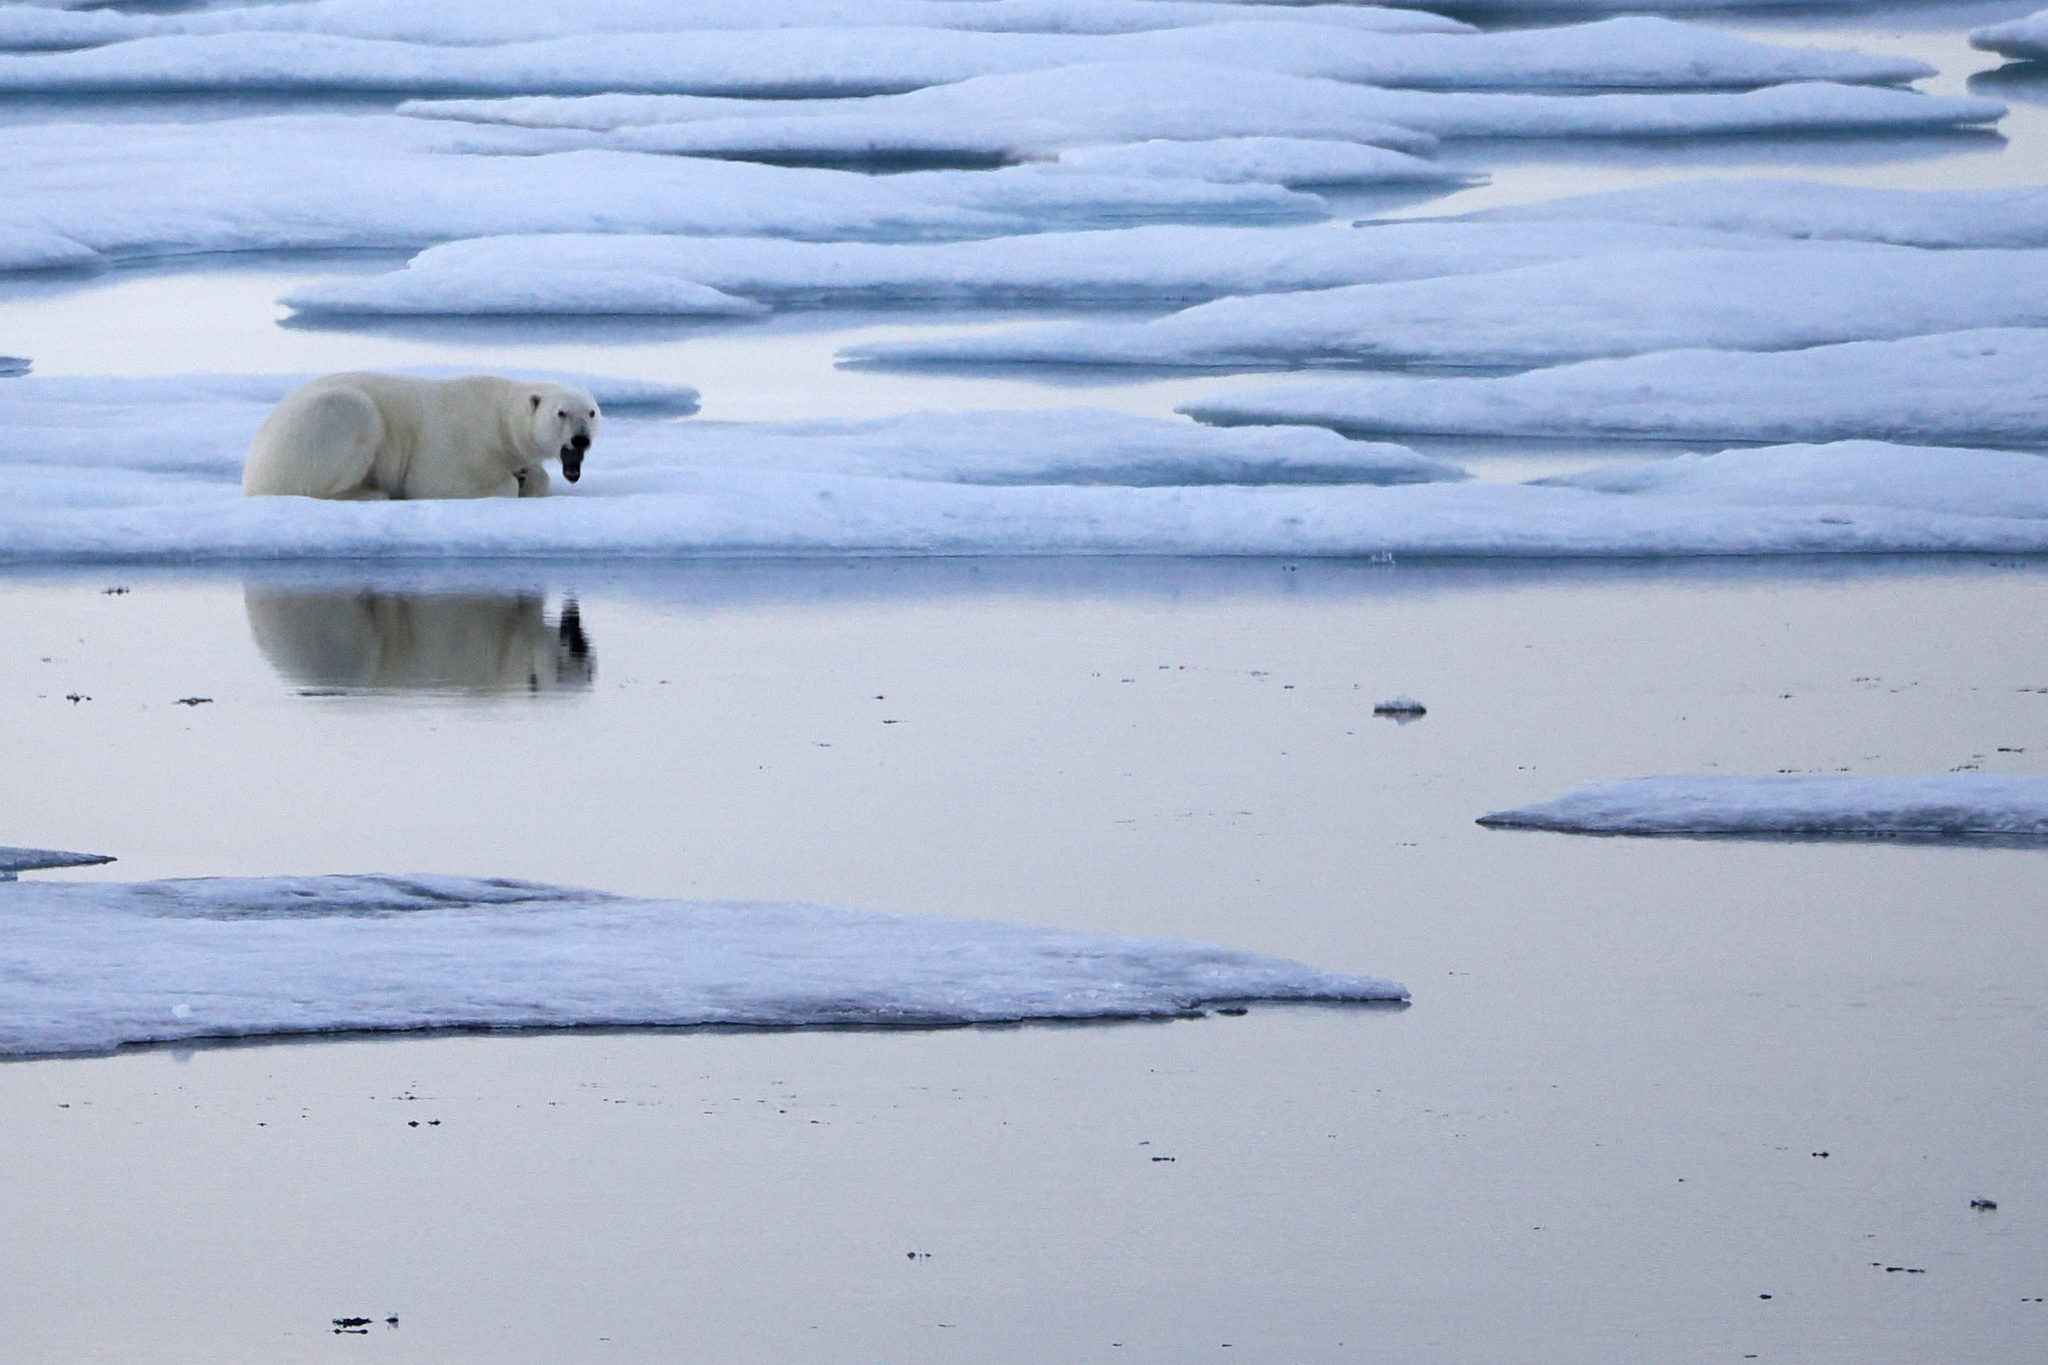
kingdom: Animalia
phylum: Chordata
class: Mammalia
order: Carnivora
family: Ursidae
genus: Ursus
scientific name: Ursus maritimus
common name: Polar bear
